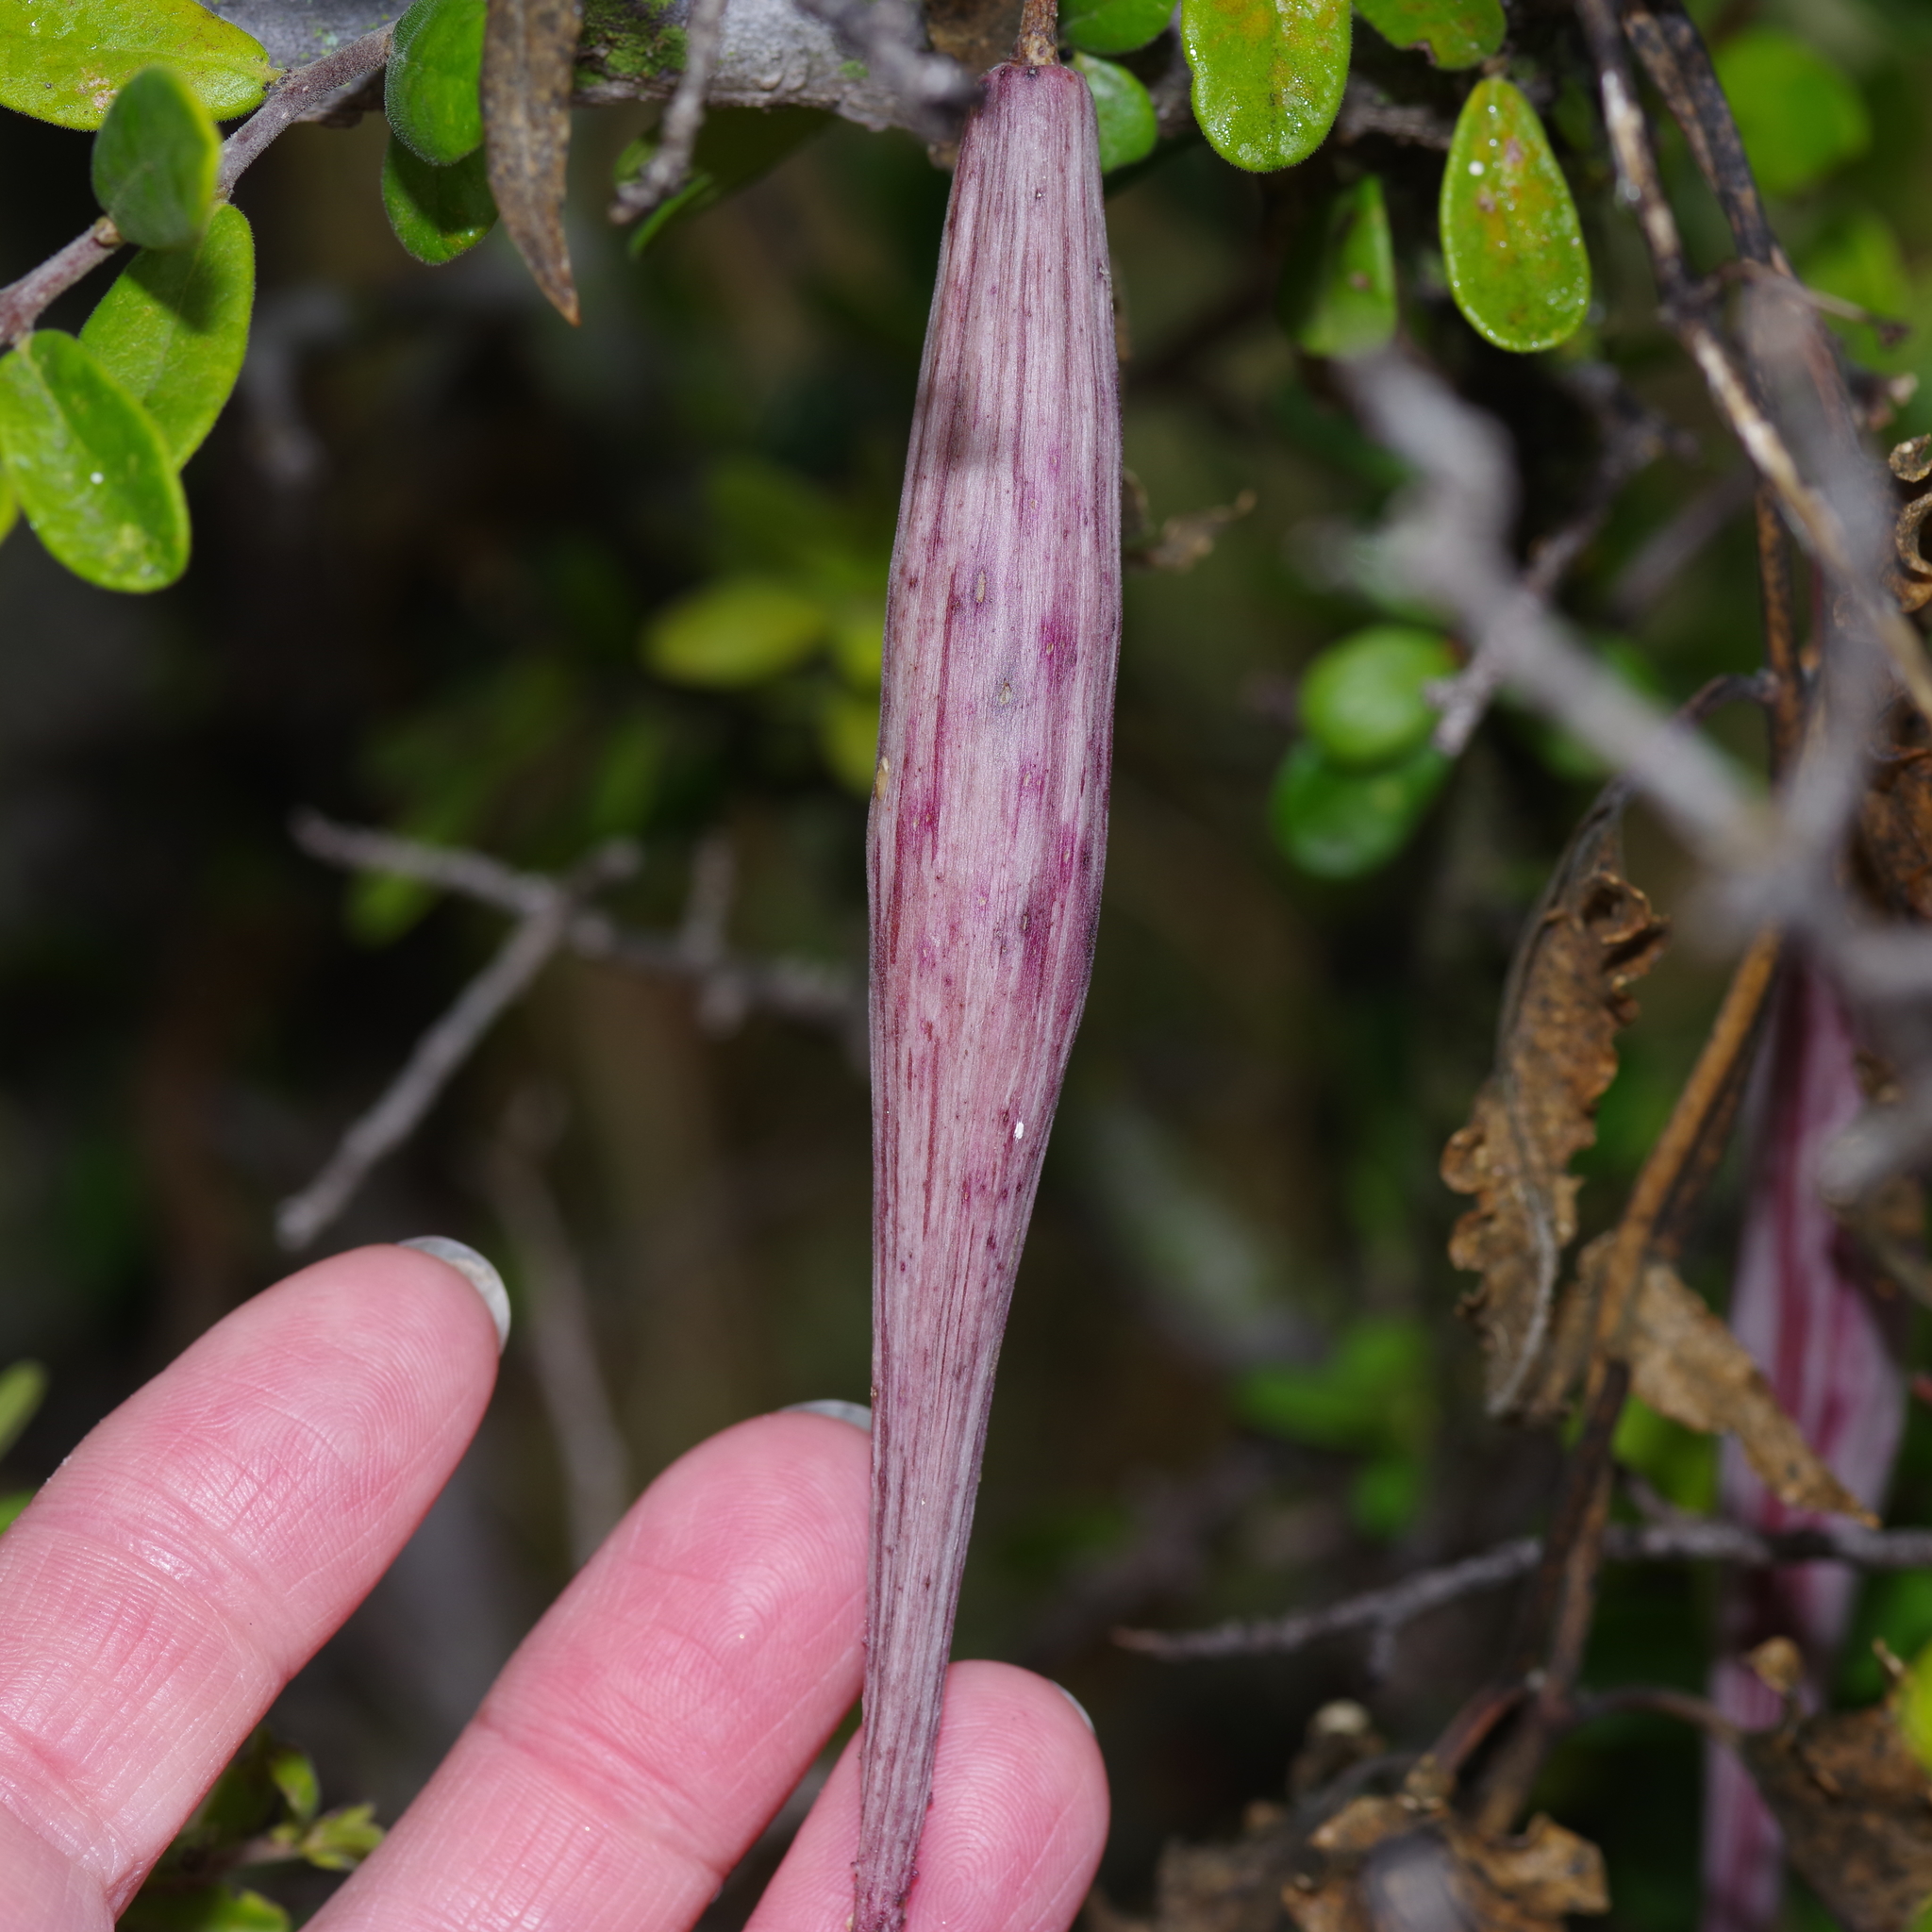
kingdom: Plantae
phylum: Tracheophyta
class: Magnoliopsida
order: Gentianales
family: Apocynaceae
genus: Funastrum
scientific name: Funastrum crispum
